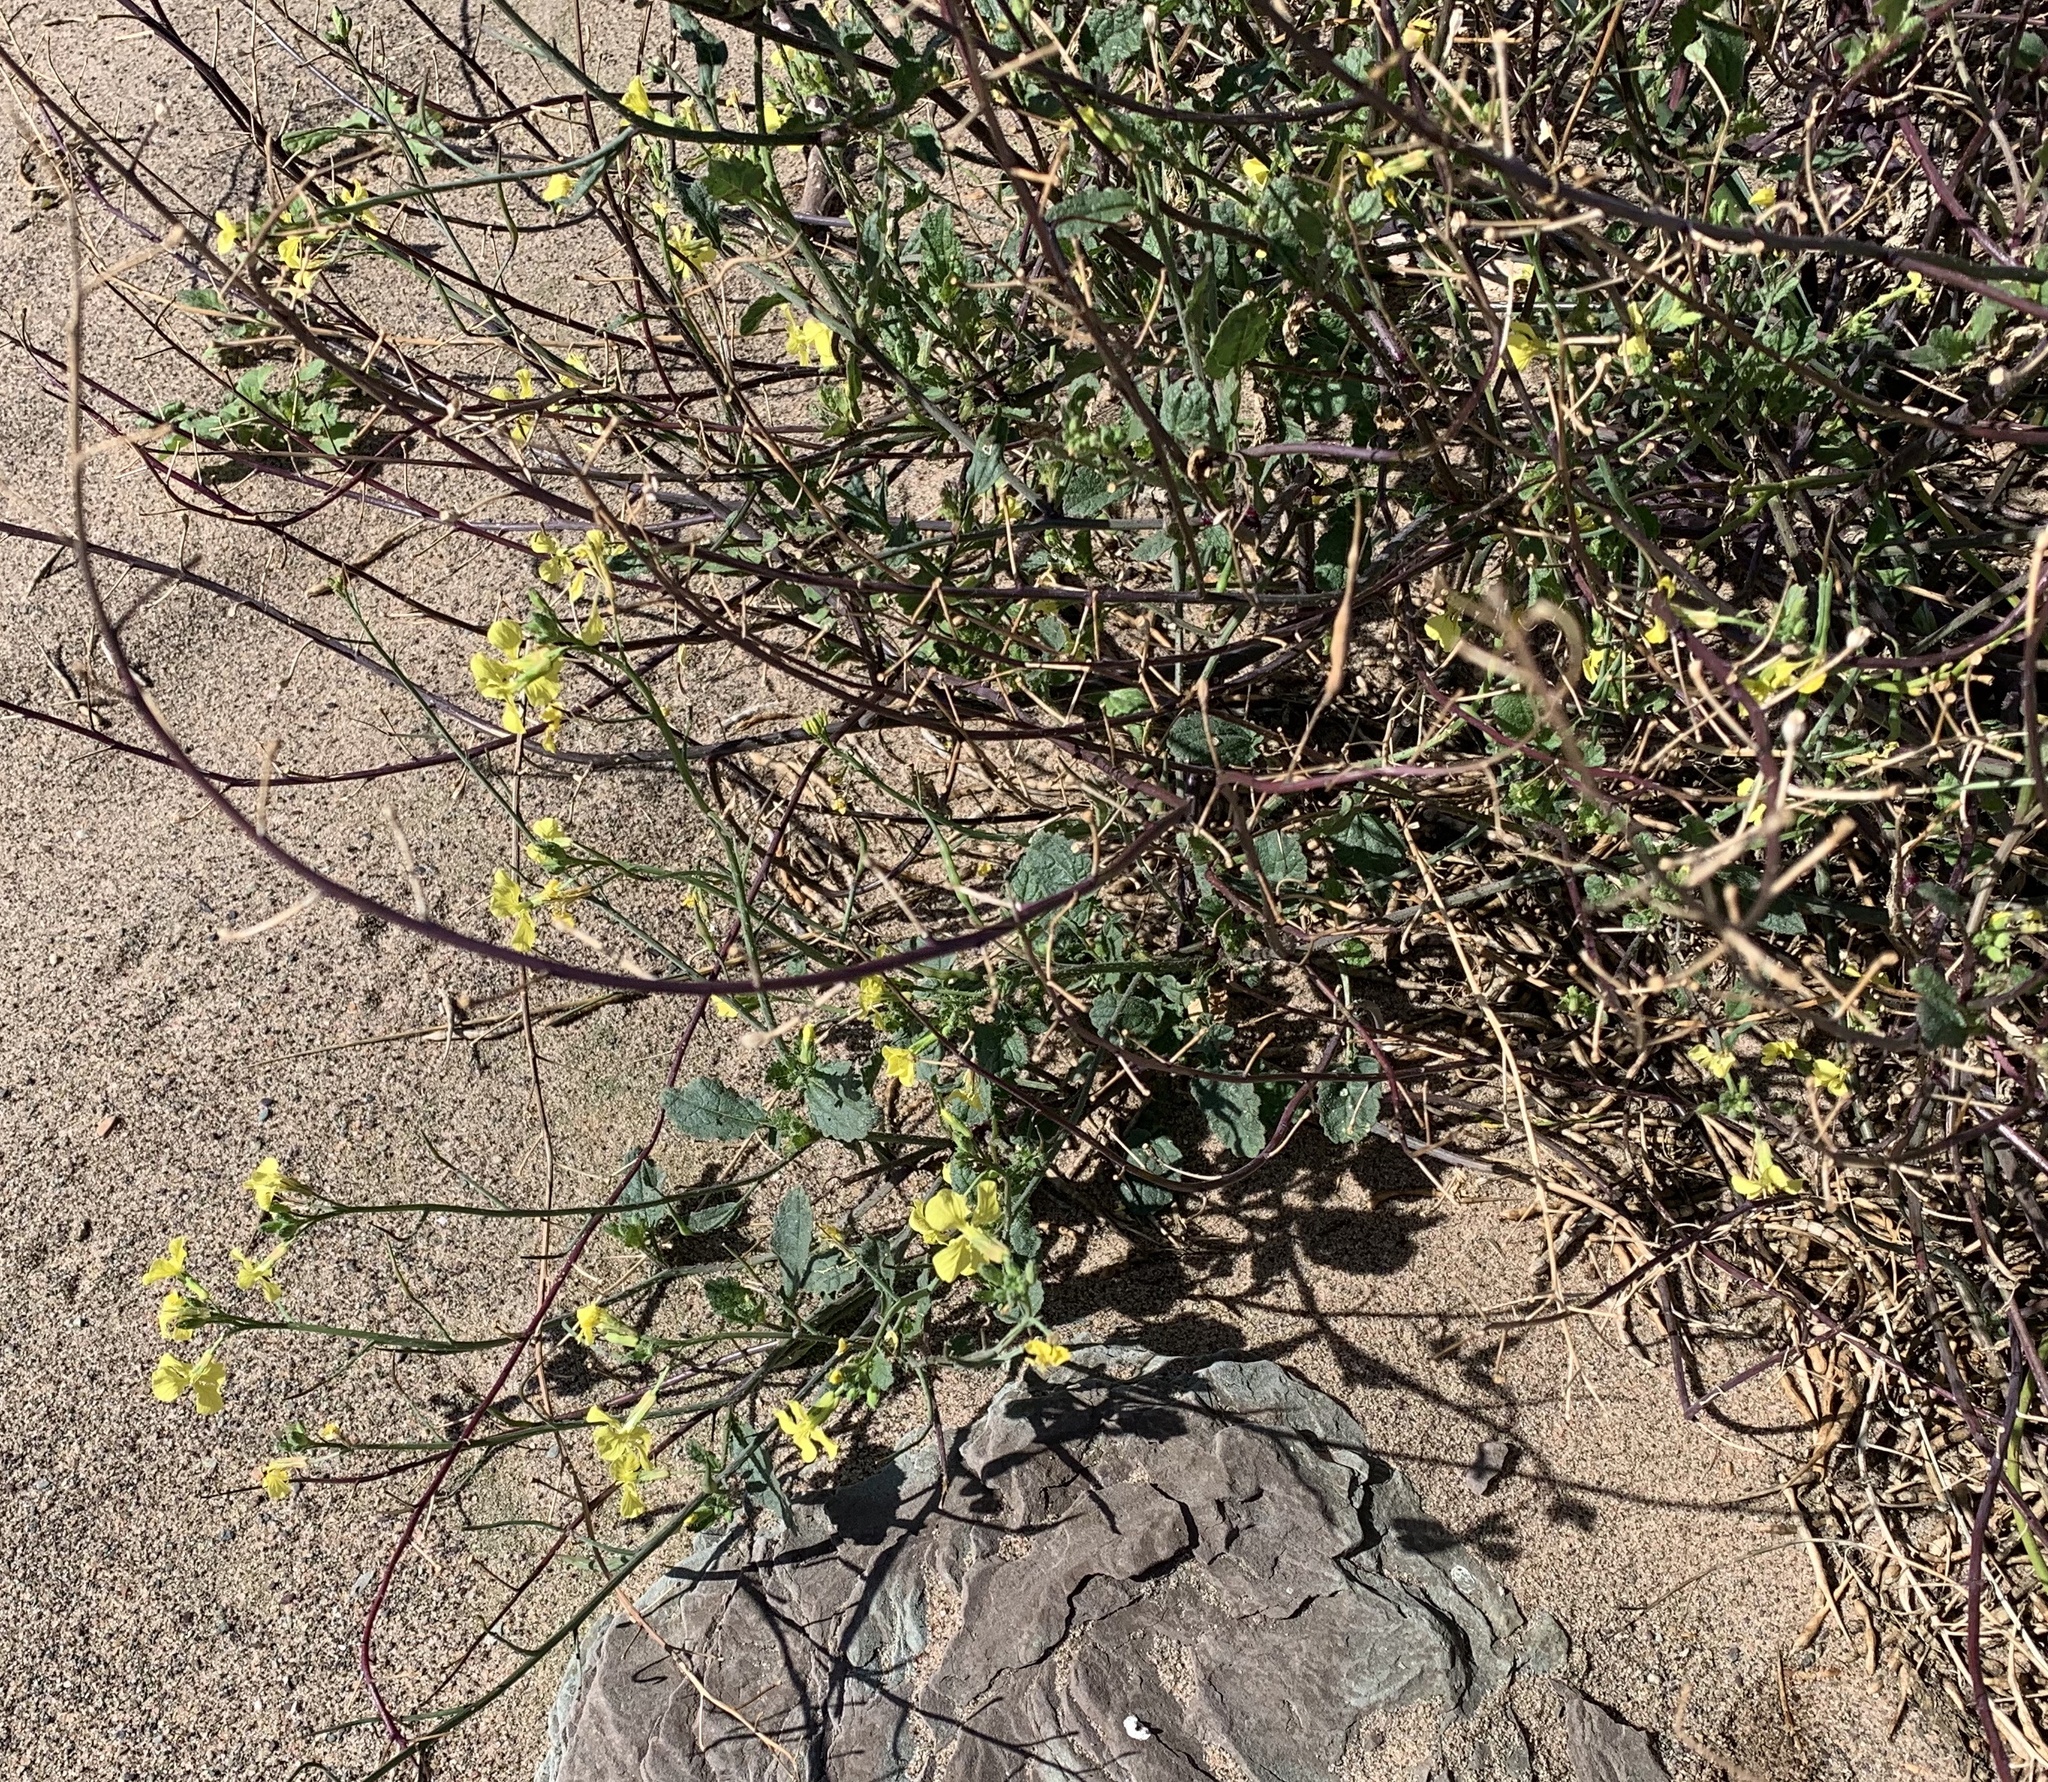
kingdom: Plantae
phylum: Tracheophyta
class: Magnoliopsida
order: Brassicales
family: Brassicaceae
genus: Raphanus
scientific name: Raphanus raphanistrum
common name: Wild radish
